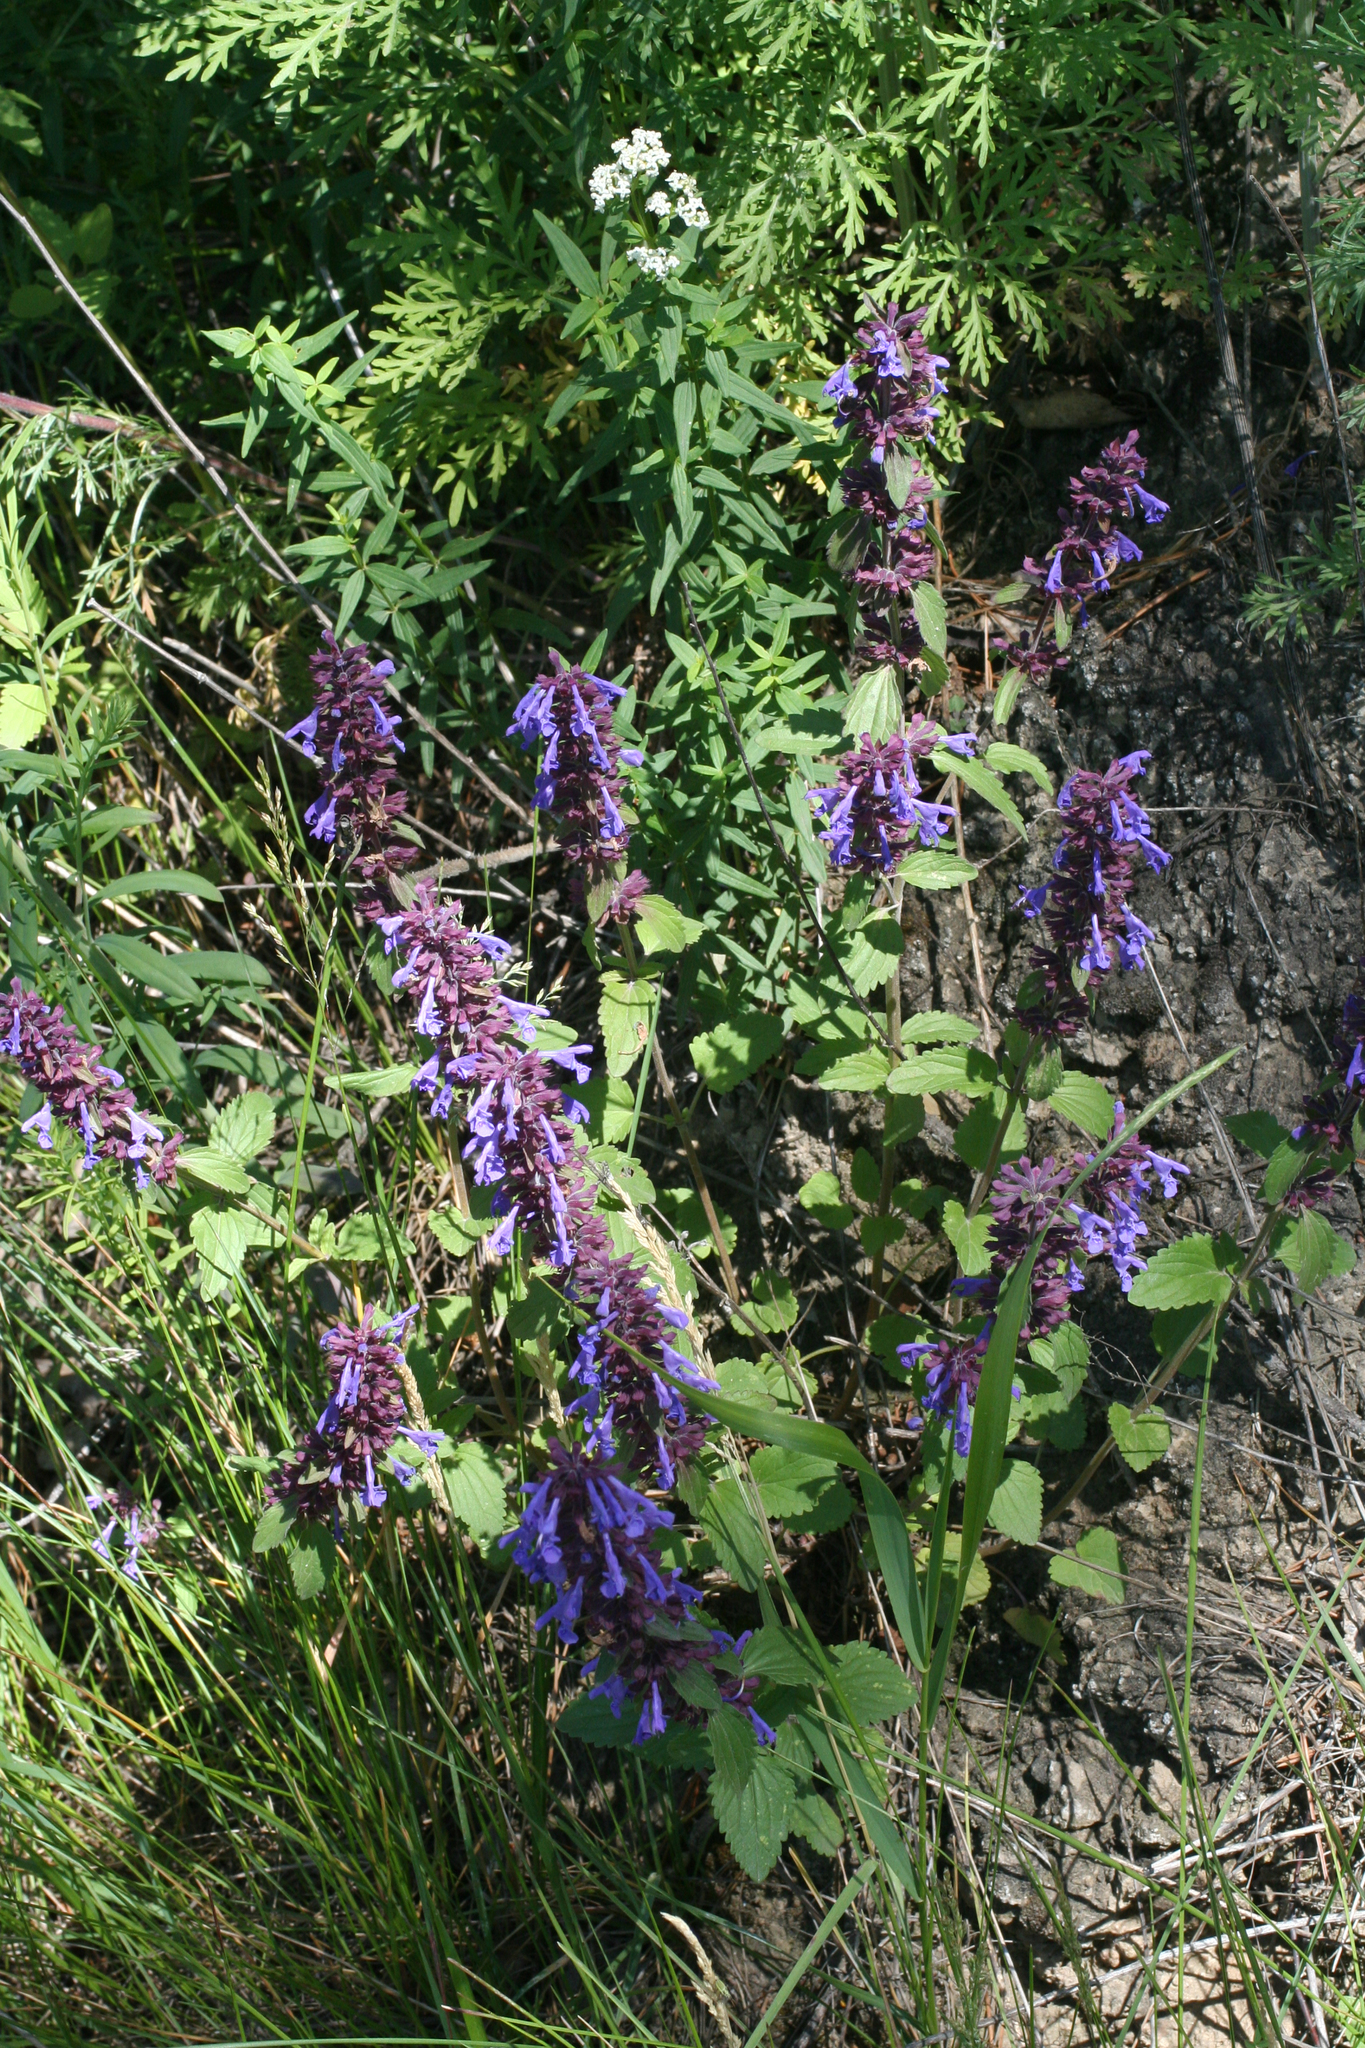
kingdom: Plantae
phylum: Tracheophyta
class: Magnoliopsida
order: Lamiales
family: Lamiaceae
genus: Dracocephalum
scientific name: Dracocephalum nutans
